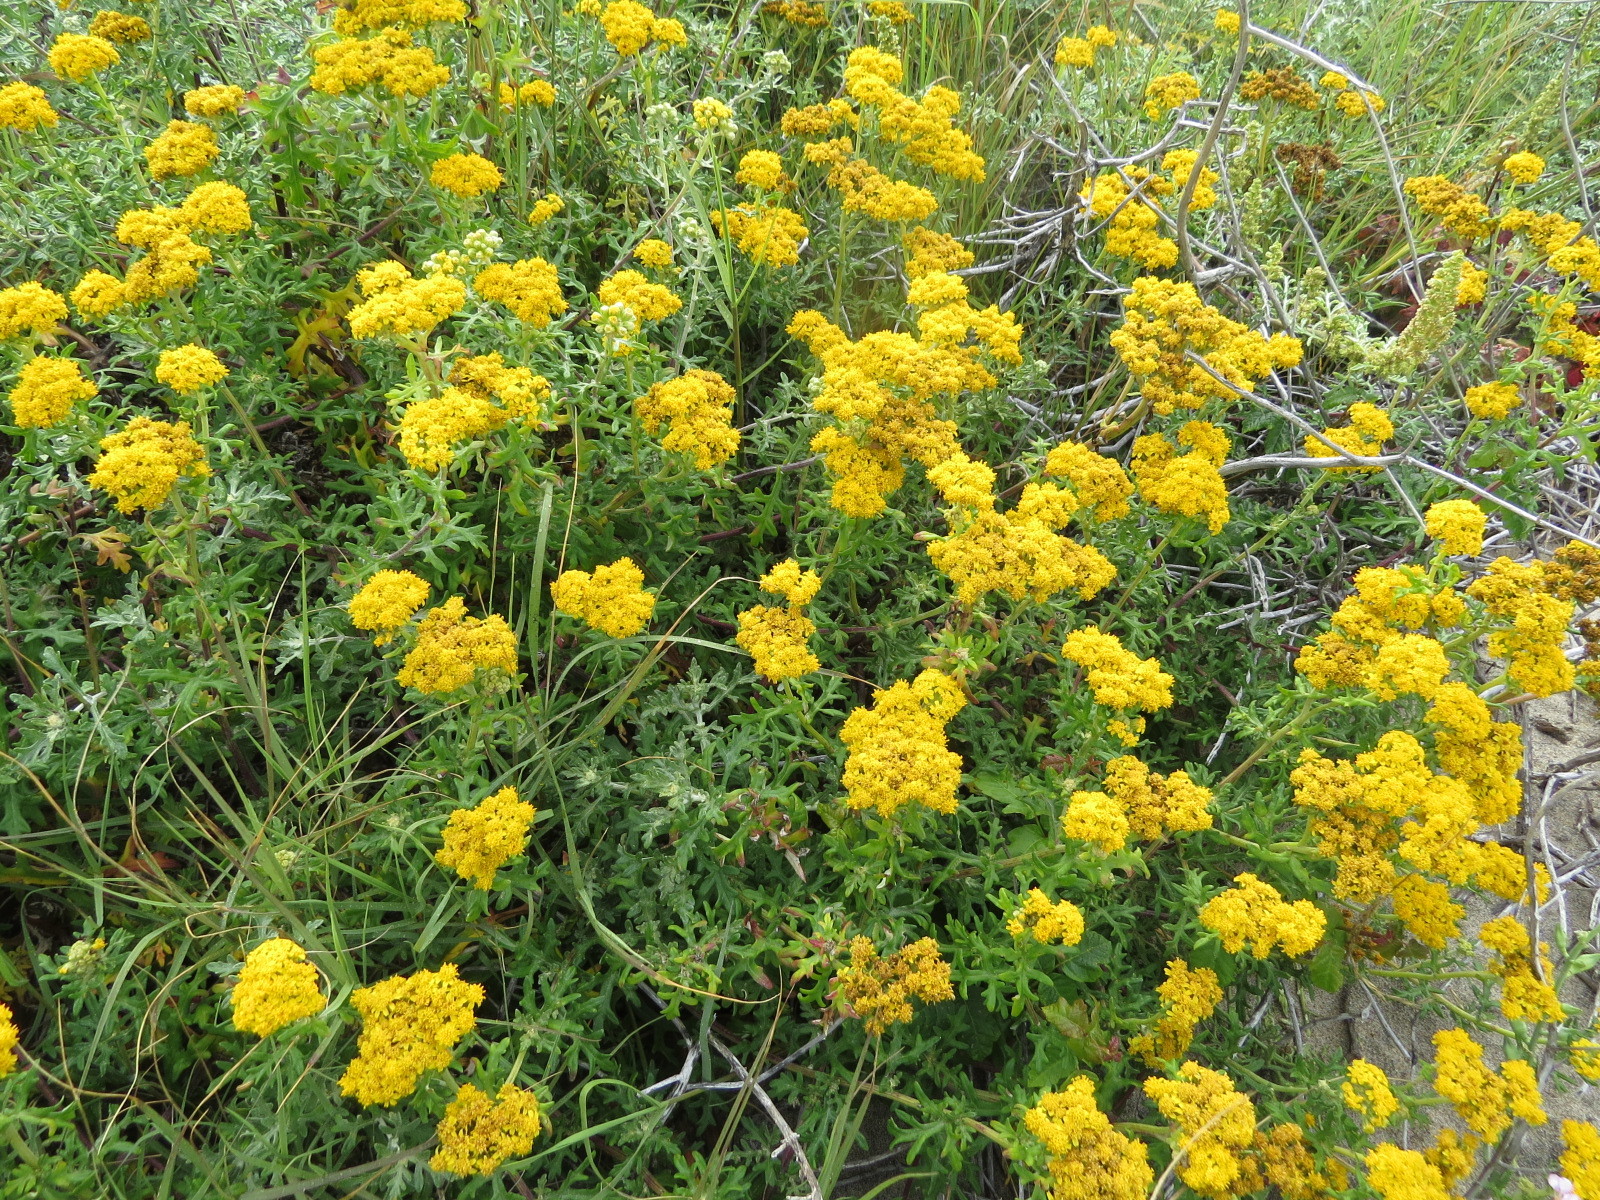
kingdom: Plantae
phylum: Tracheophyta
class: Magnoliopsida
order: Asterales
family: Asteraceae
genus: Eriophyllum
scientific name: Eriophyllum staechadifolium
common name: Lizardtail
